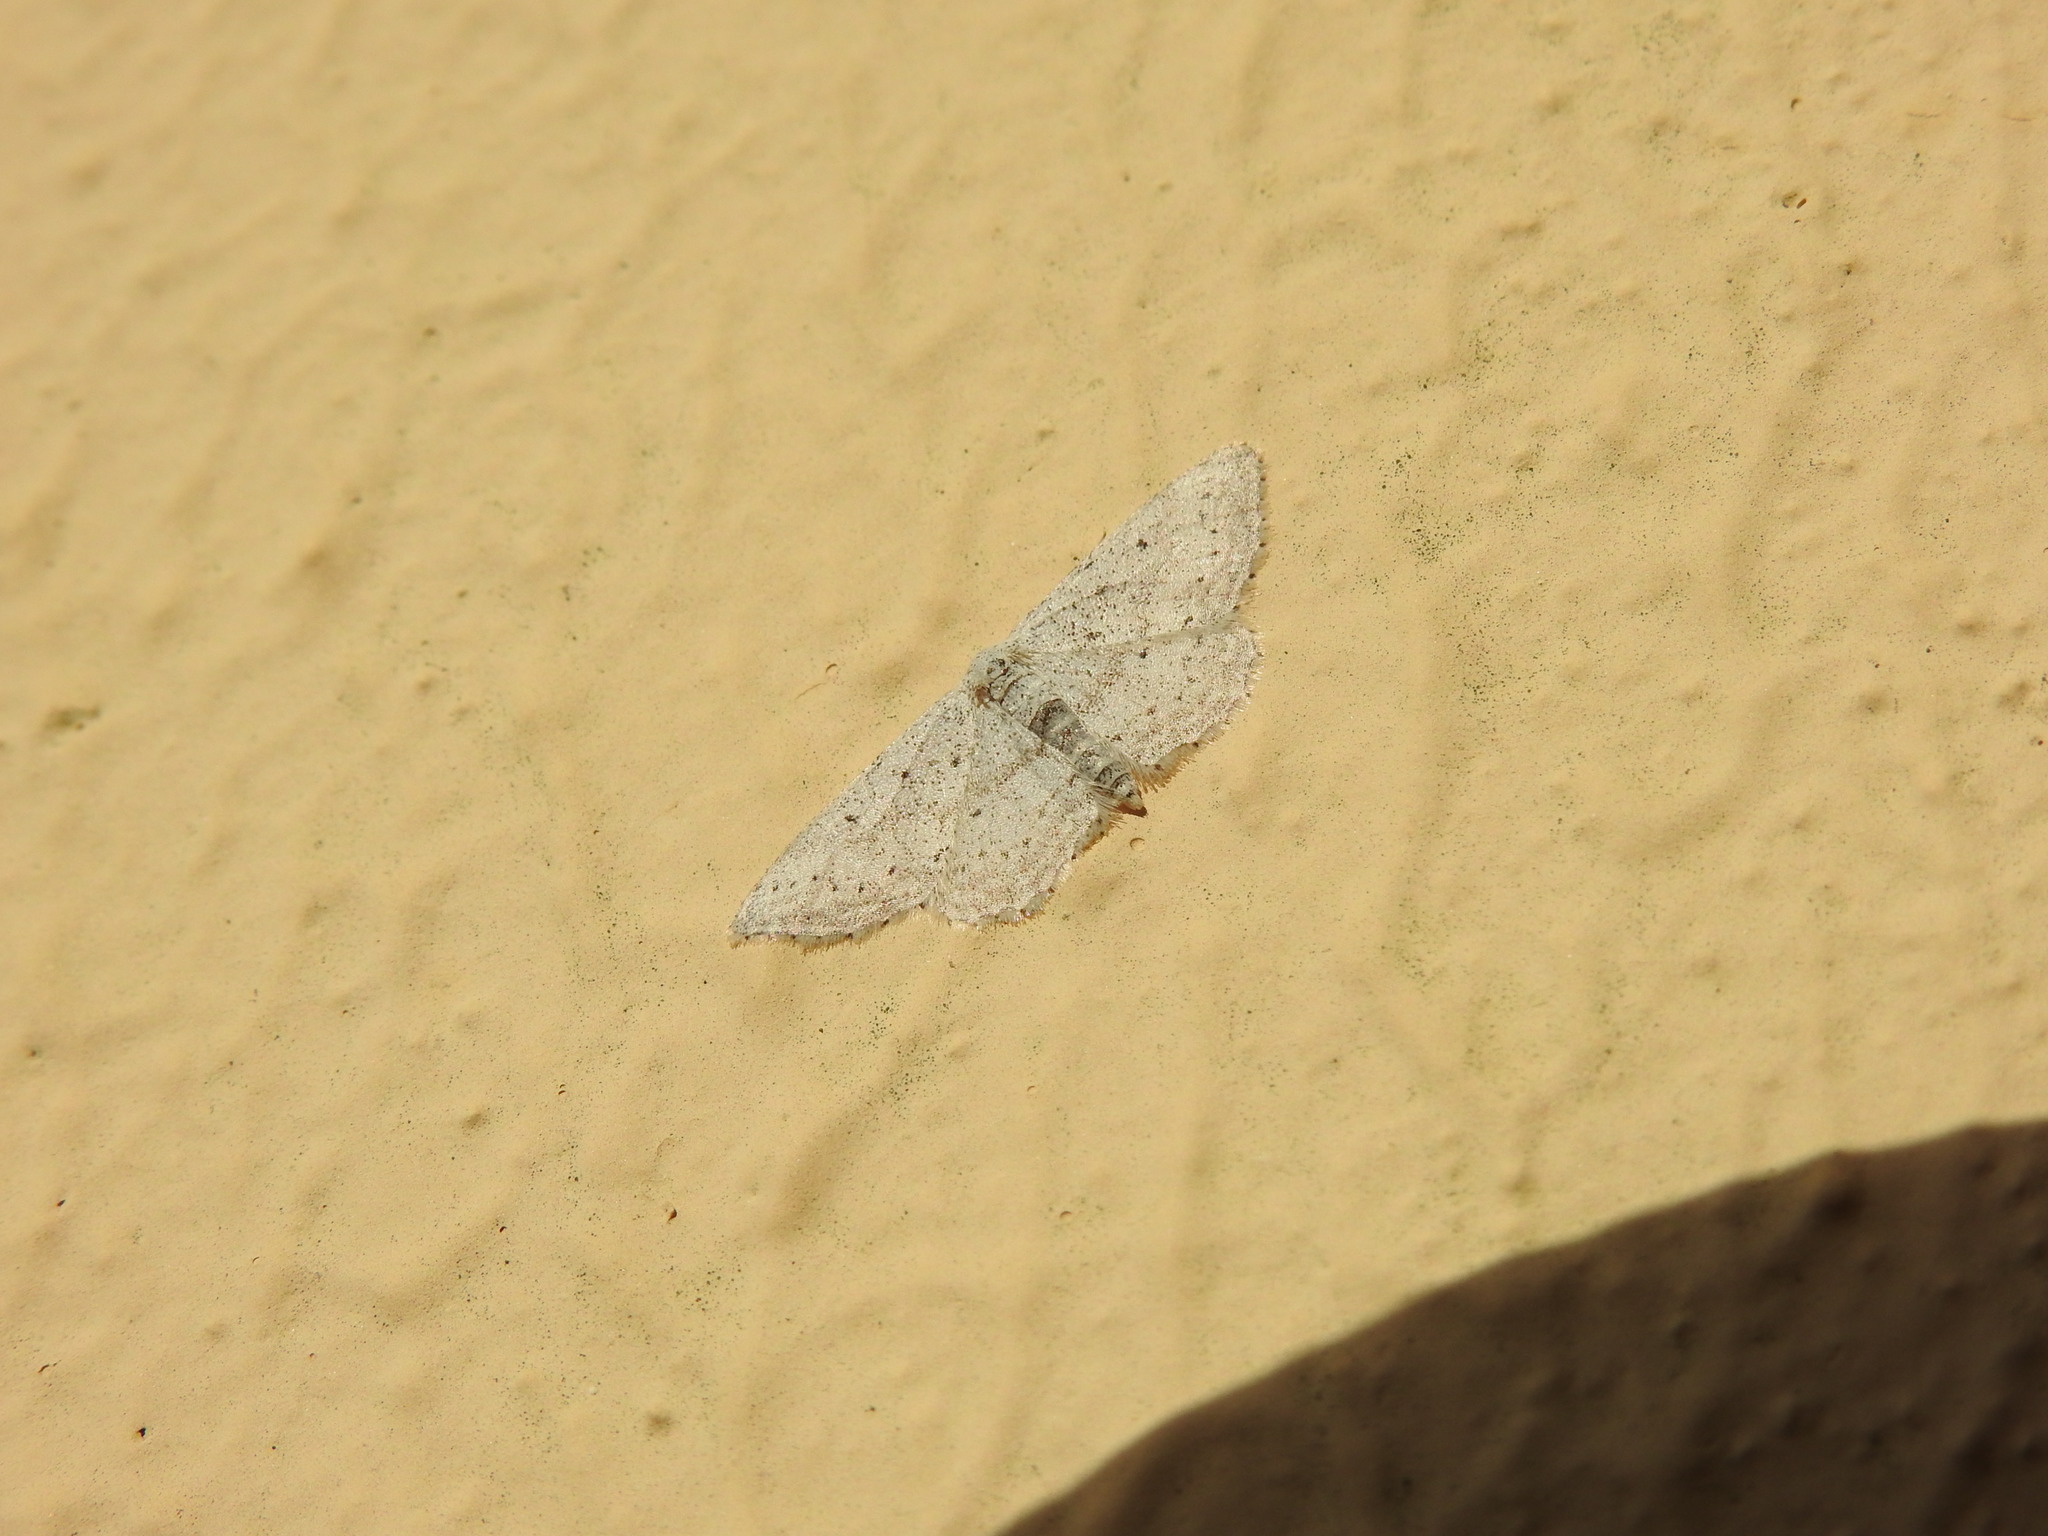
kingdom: Animalia
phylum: Arthropoda
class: Insecta
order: Lepidoptera
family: Geometridae
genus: Idaea
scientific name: Idaea seriata
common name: Small dusty wave
